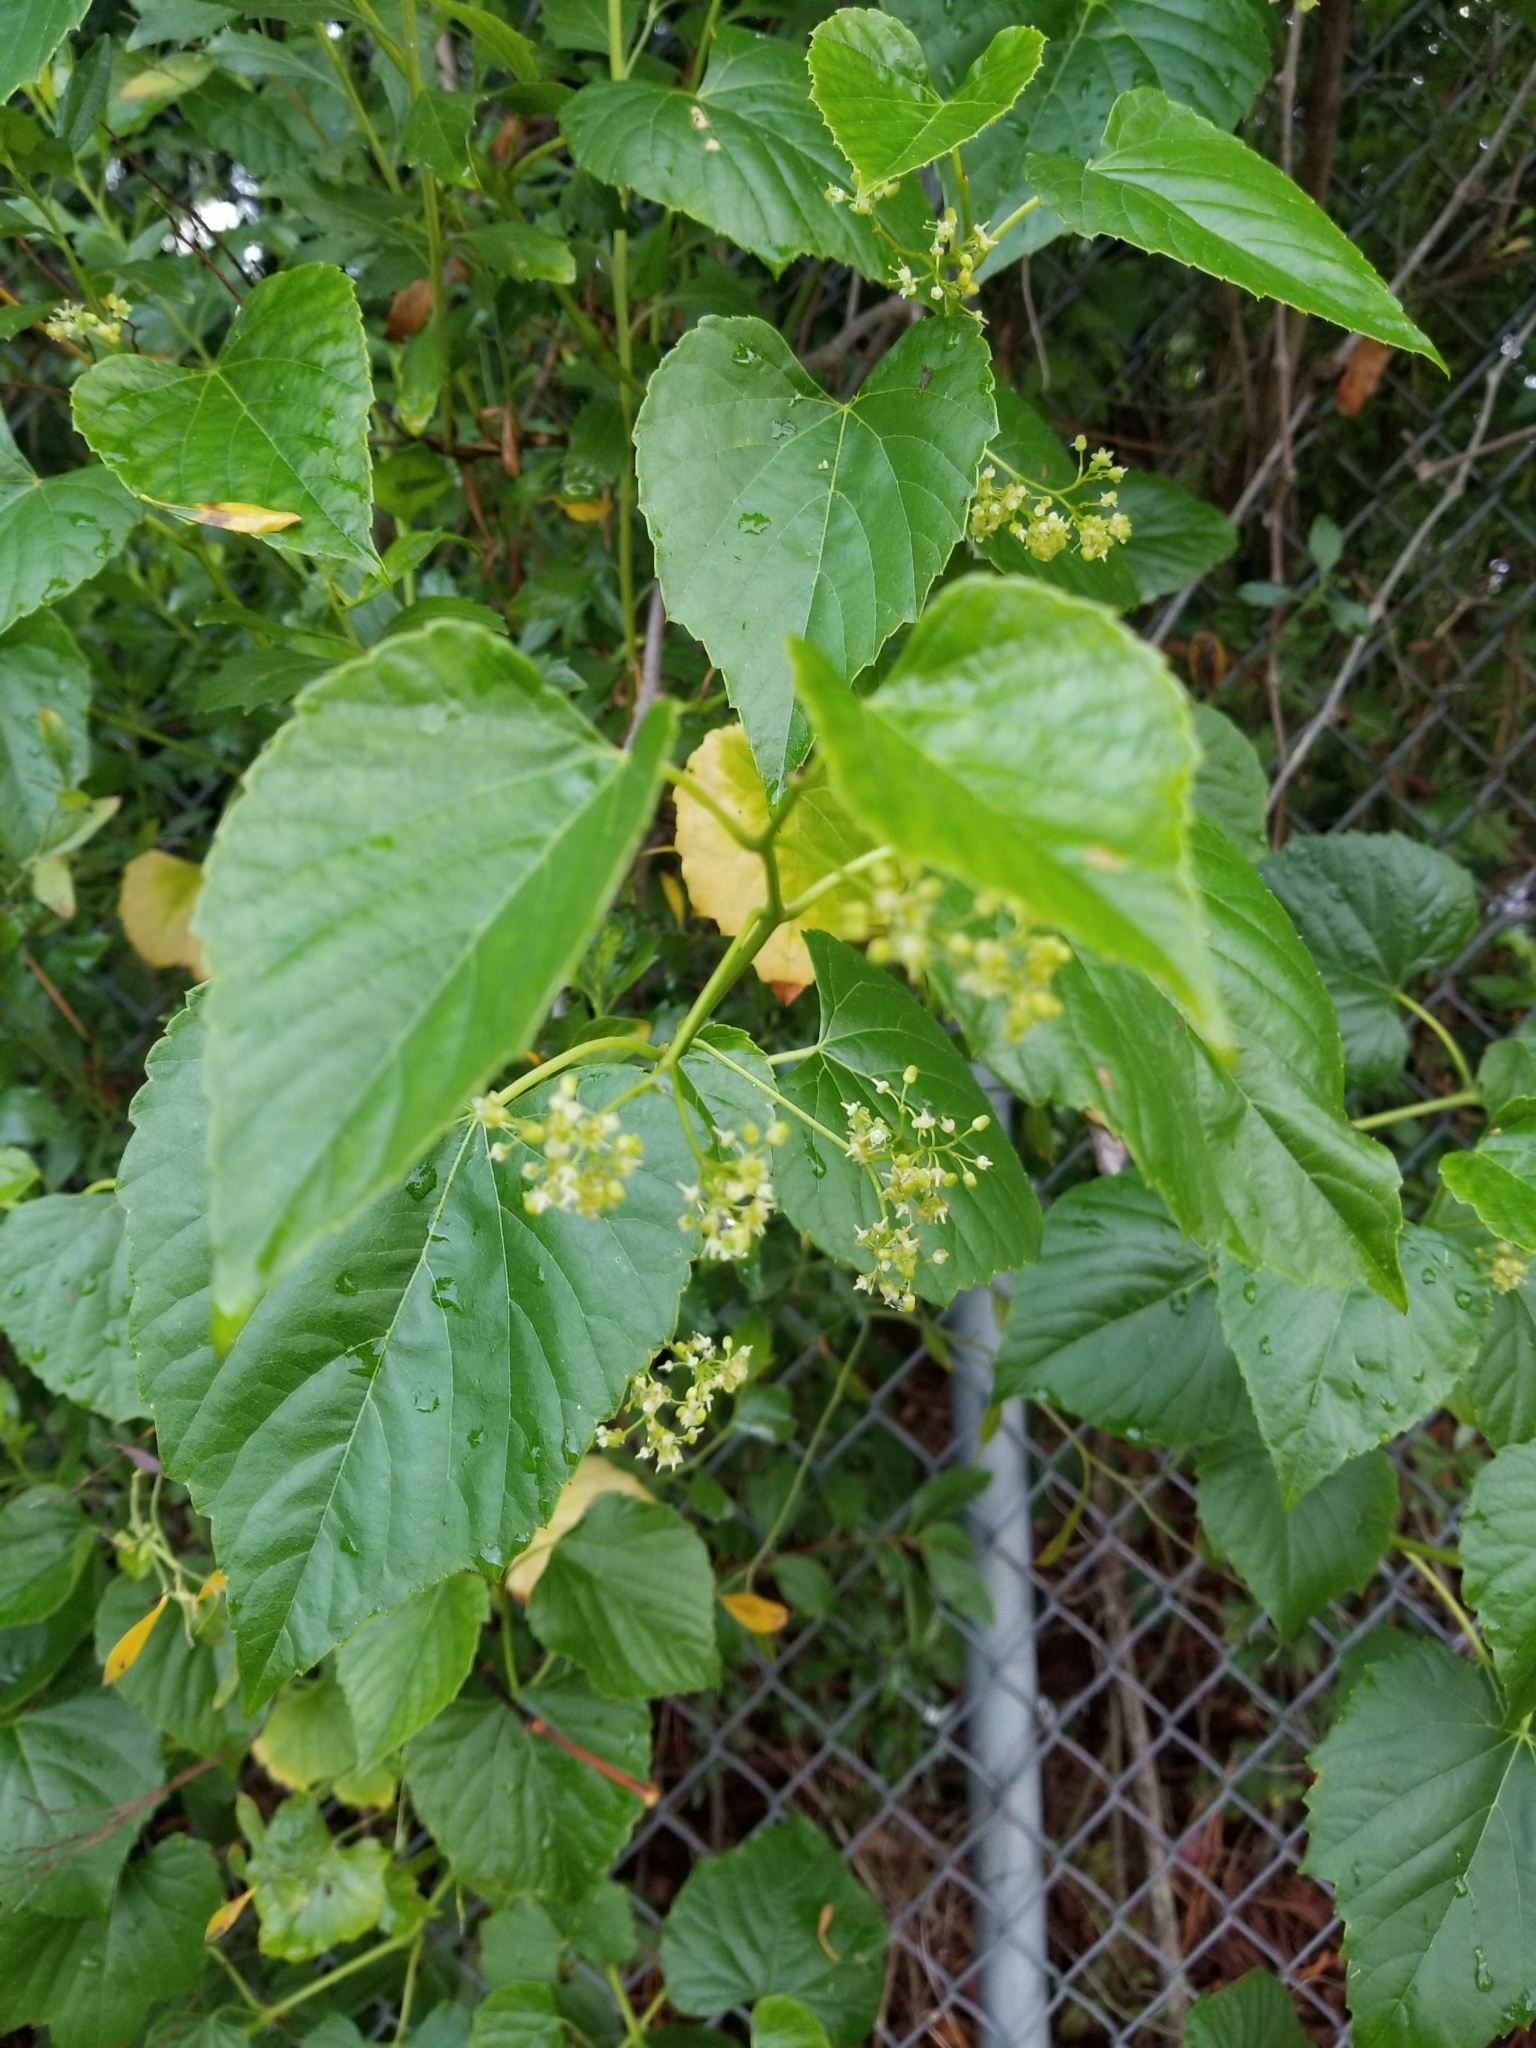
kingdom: Plantae
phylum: Tracheophyta
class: Magnoliopsida
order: Vitales
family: Vitaceae
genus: Ampelopsis
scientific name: Ampelopsis cordata
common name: Heart-leaf ampelopsis
